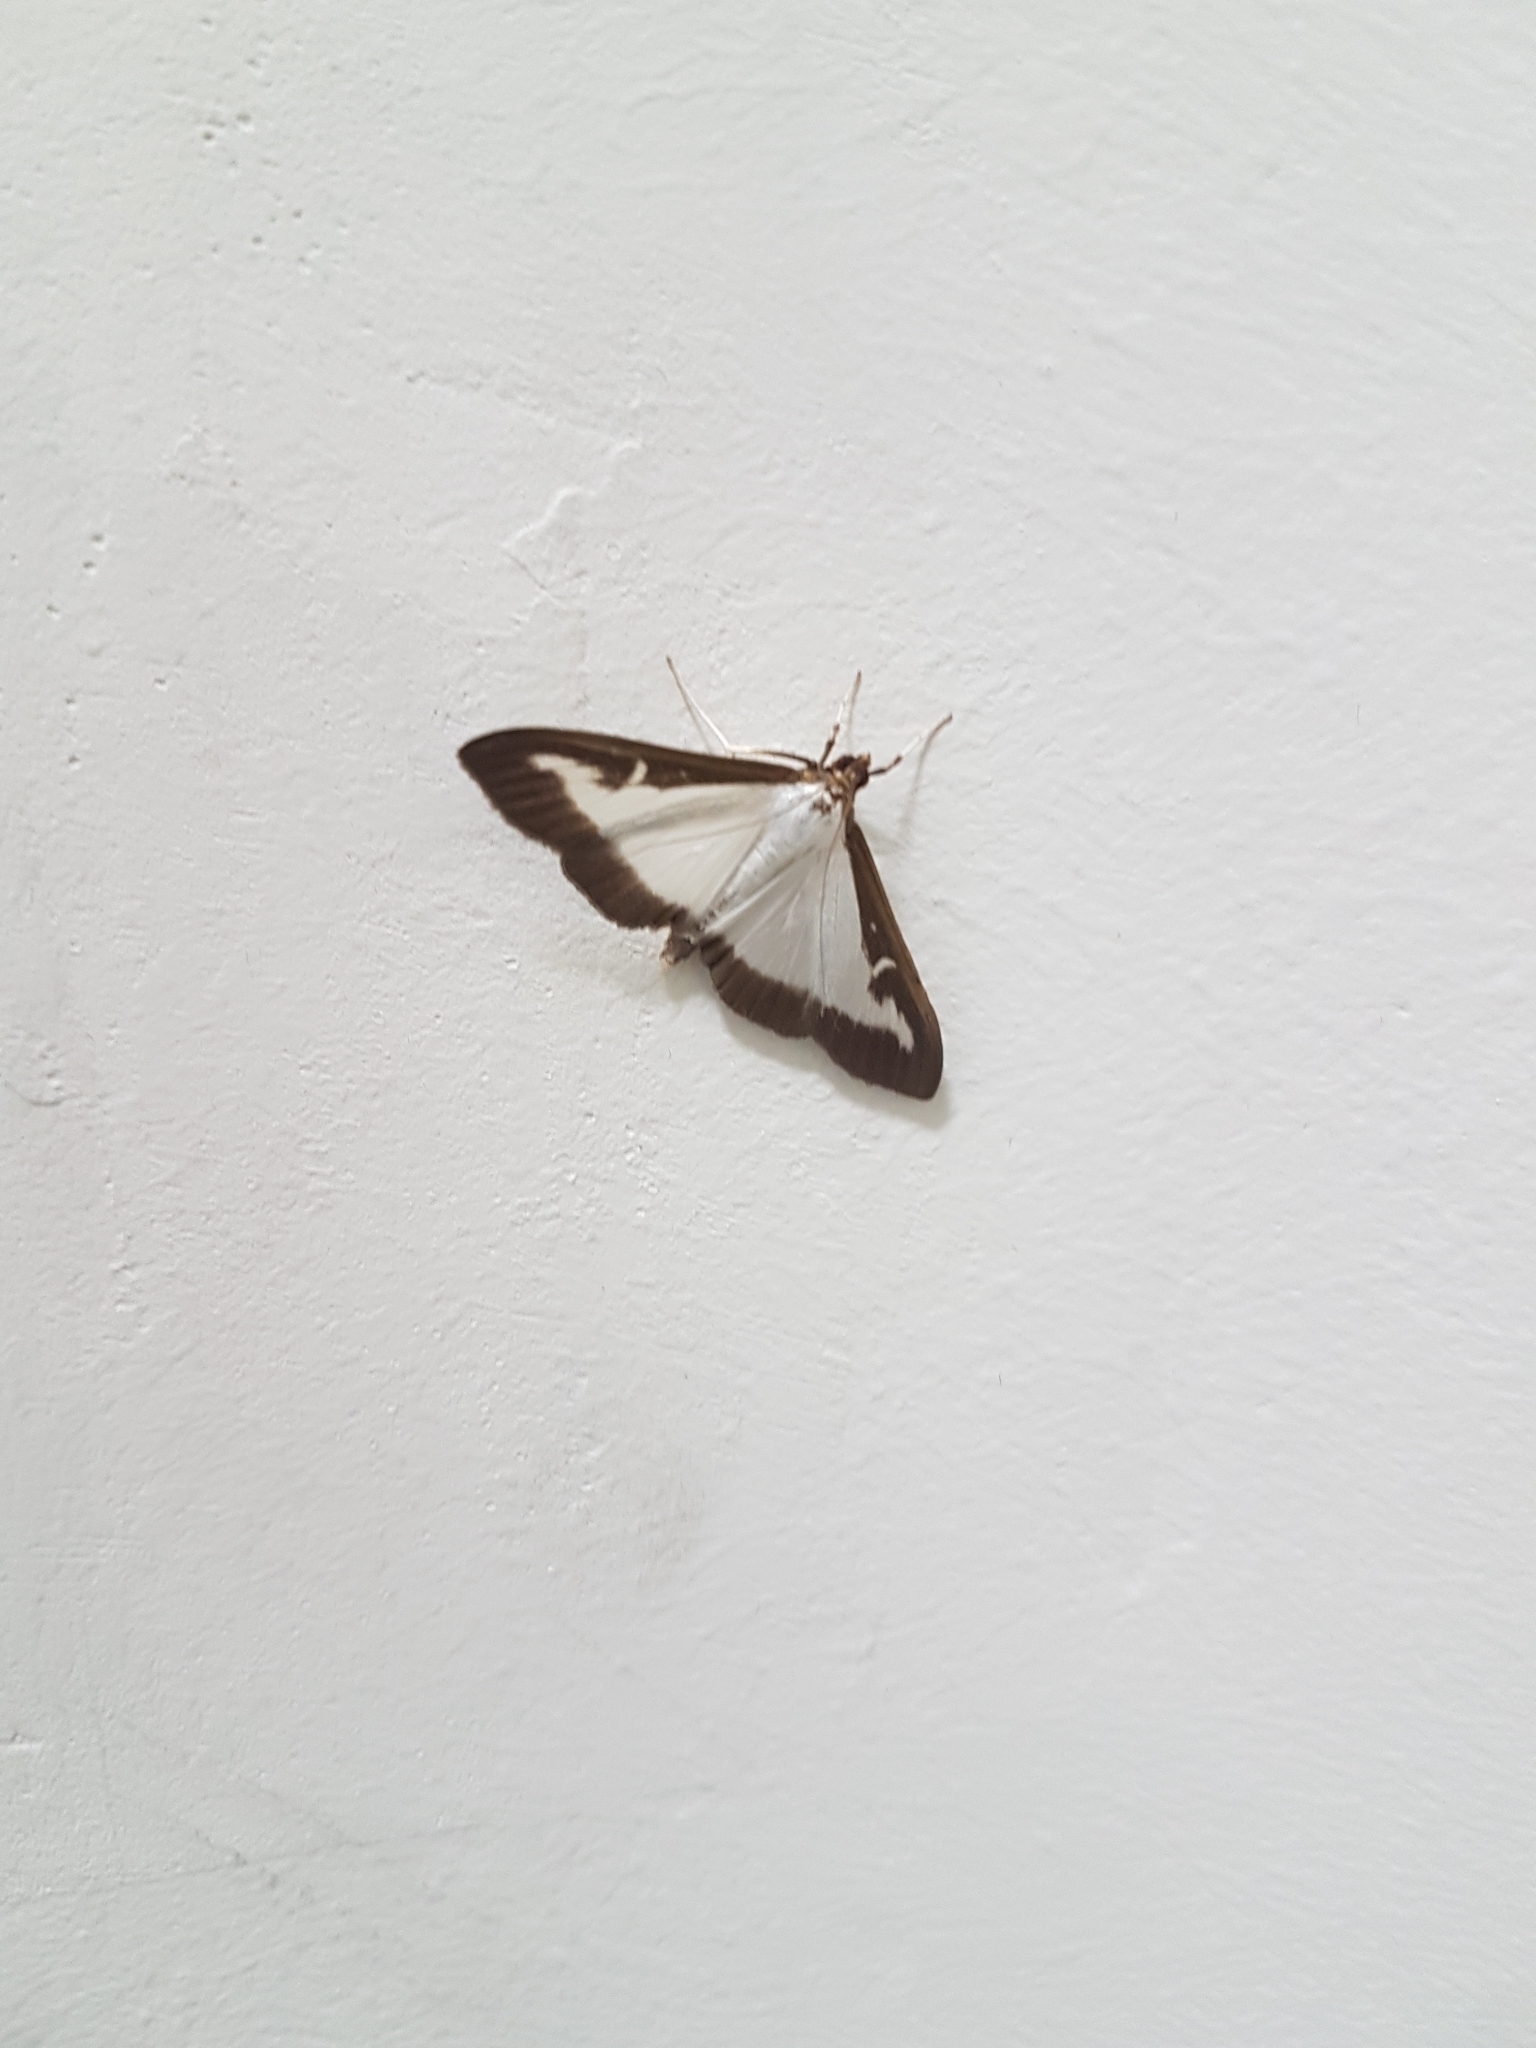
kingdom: Animalia
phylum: Arthropoda
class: Insecta
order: Lepidoptera
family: Crambidae
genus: Cydalima
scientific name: Cydalima perspectalis
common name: Box tree moth
